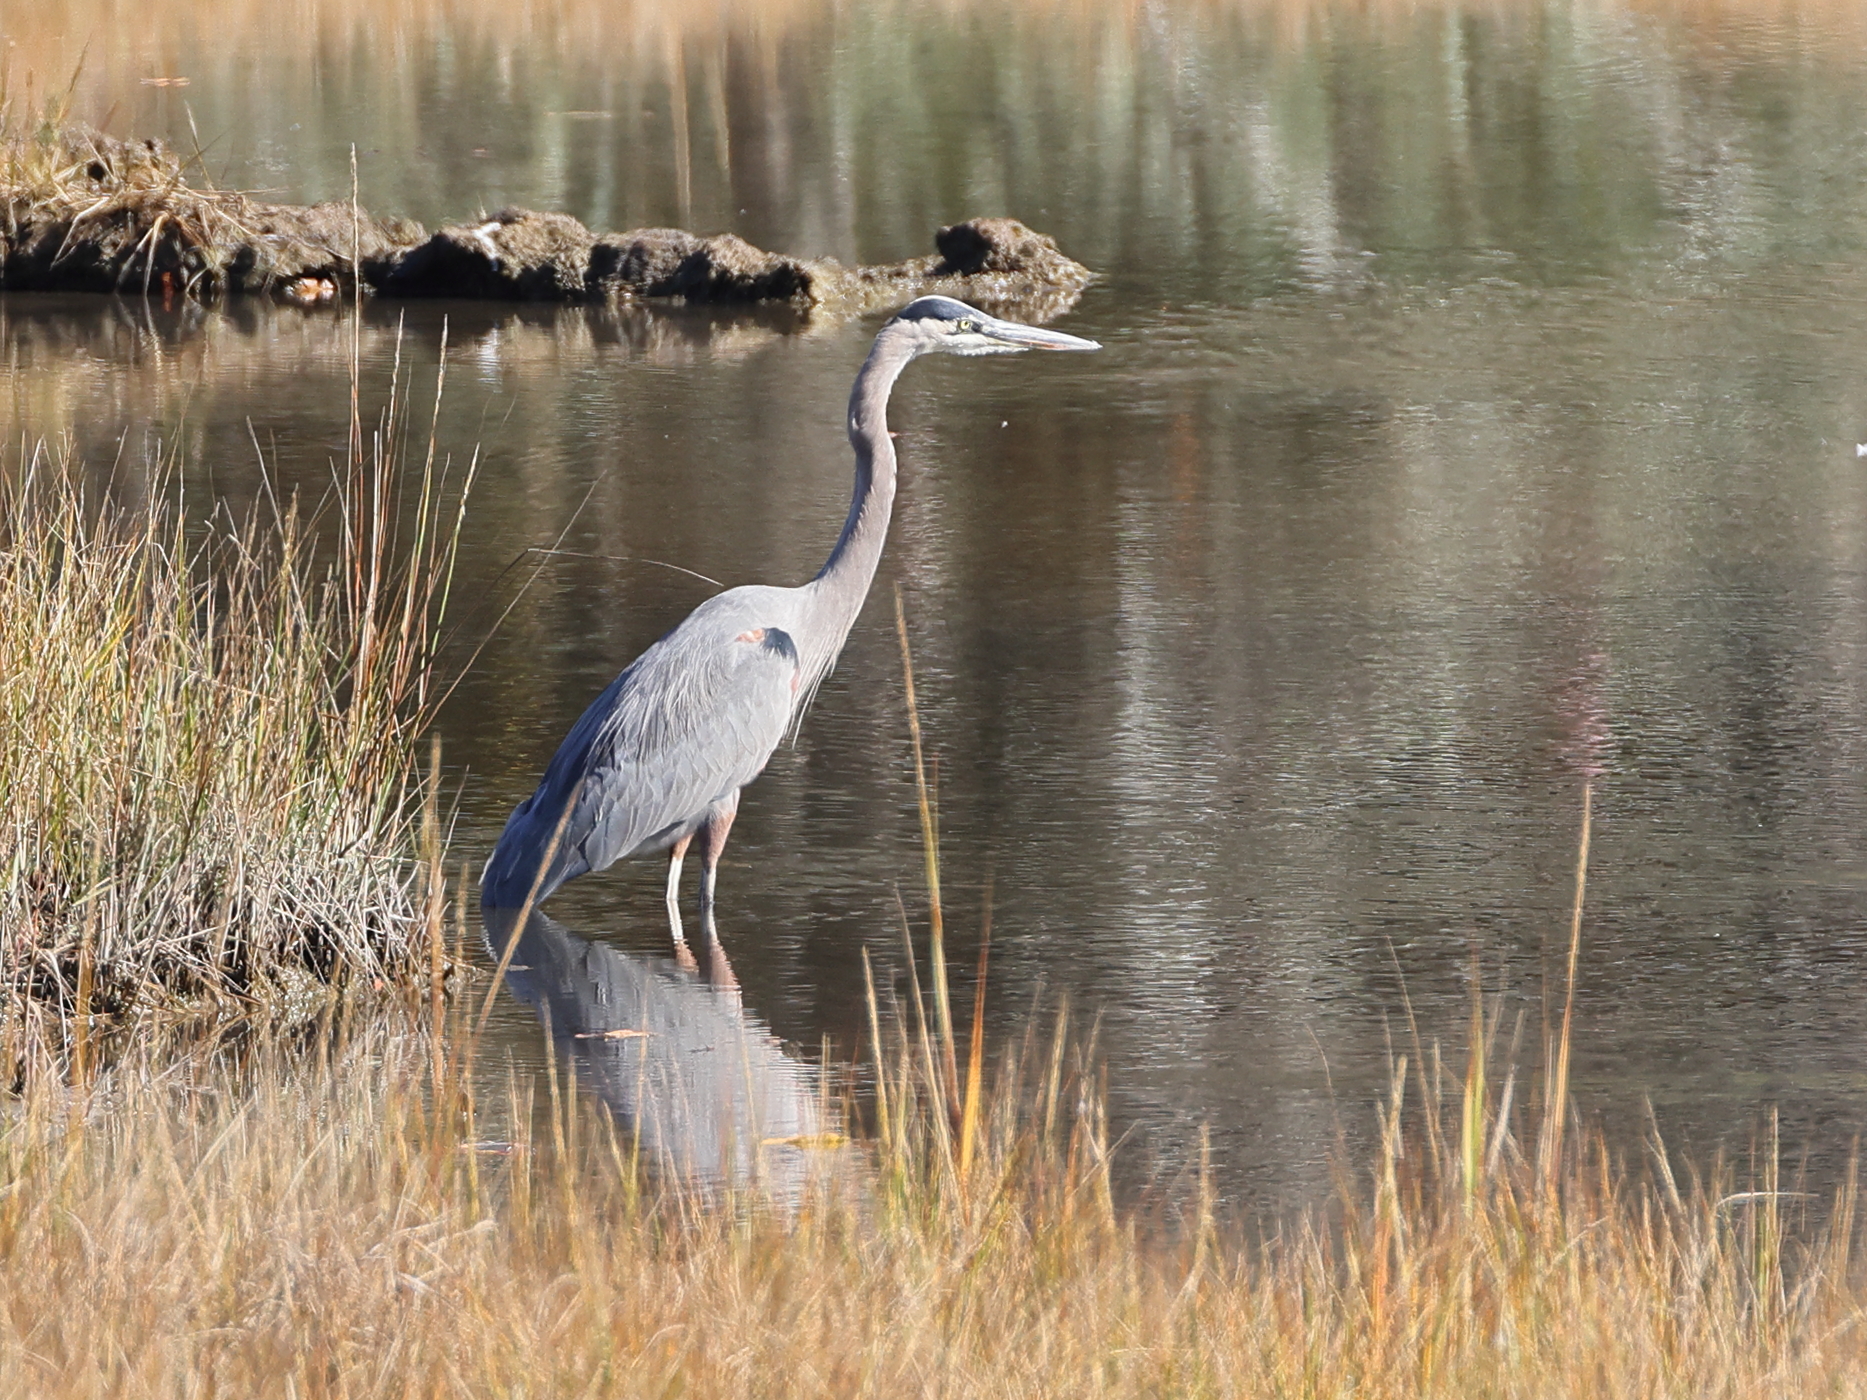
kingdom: Animalia
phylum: Chordata
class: Aves
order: Pelecaniformes
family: Ardeidae
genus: Ardea
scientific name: Ardea herodias
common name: Great blue heron
